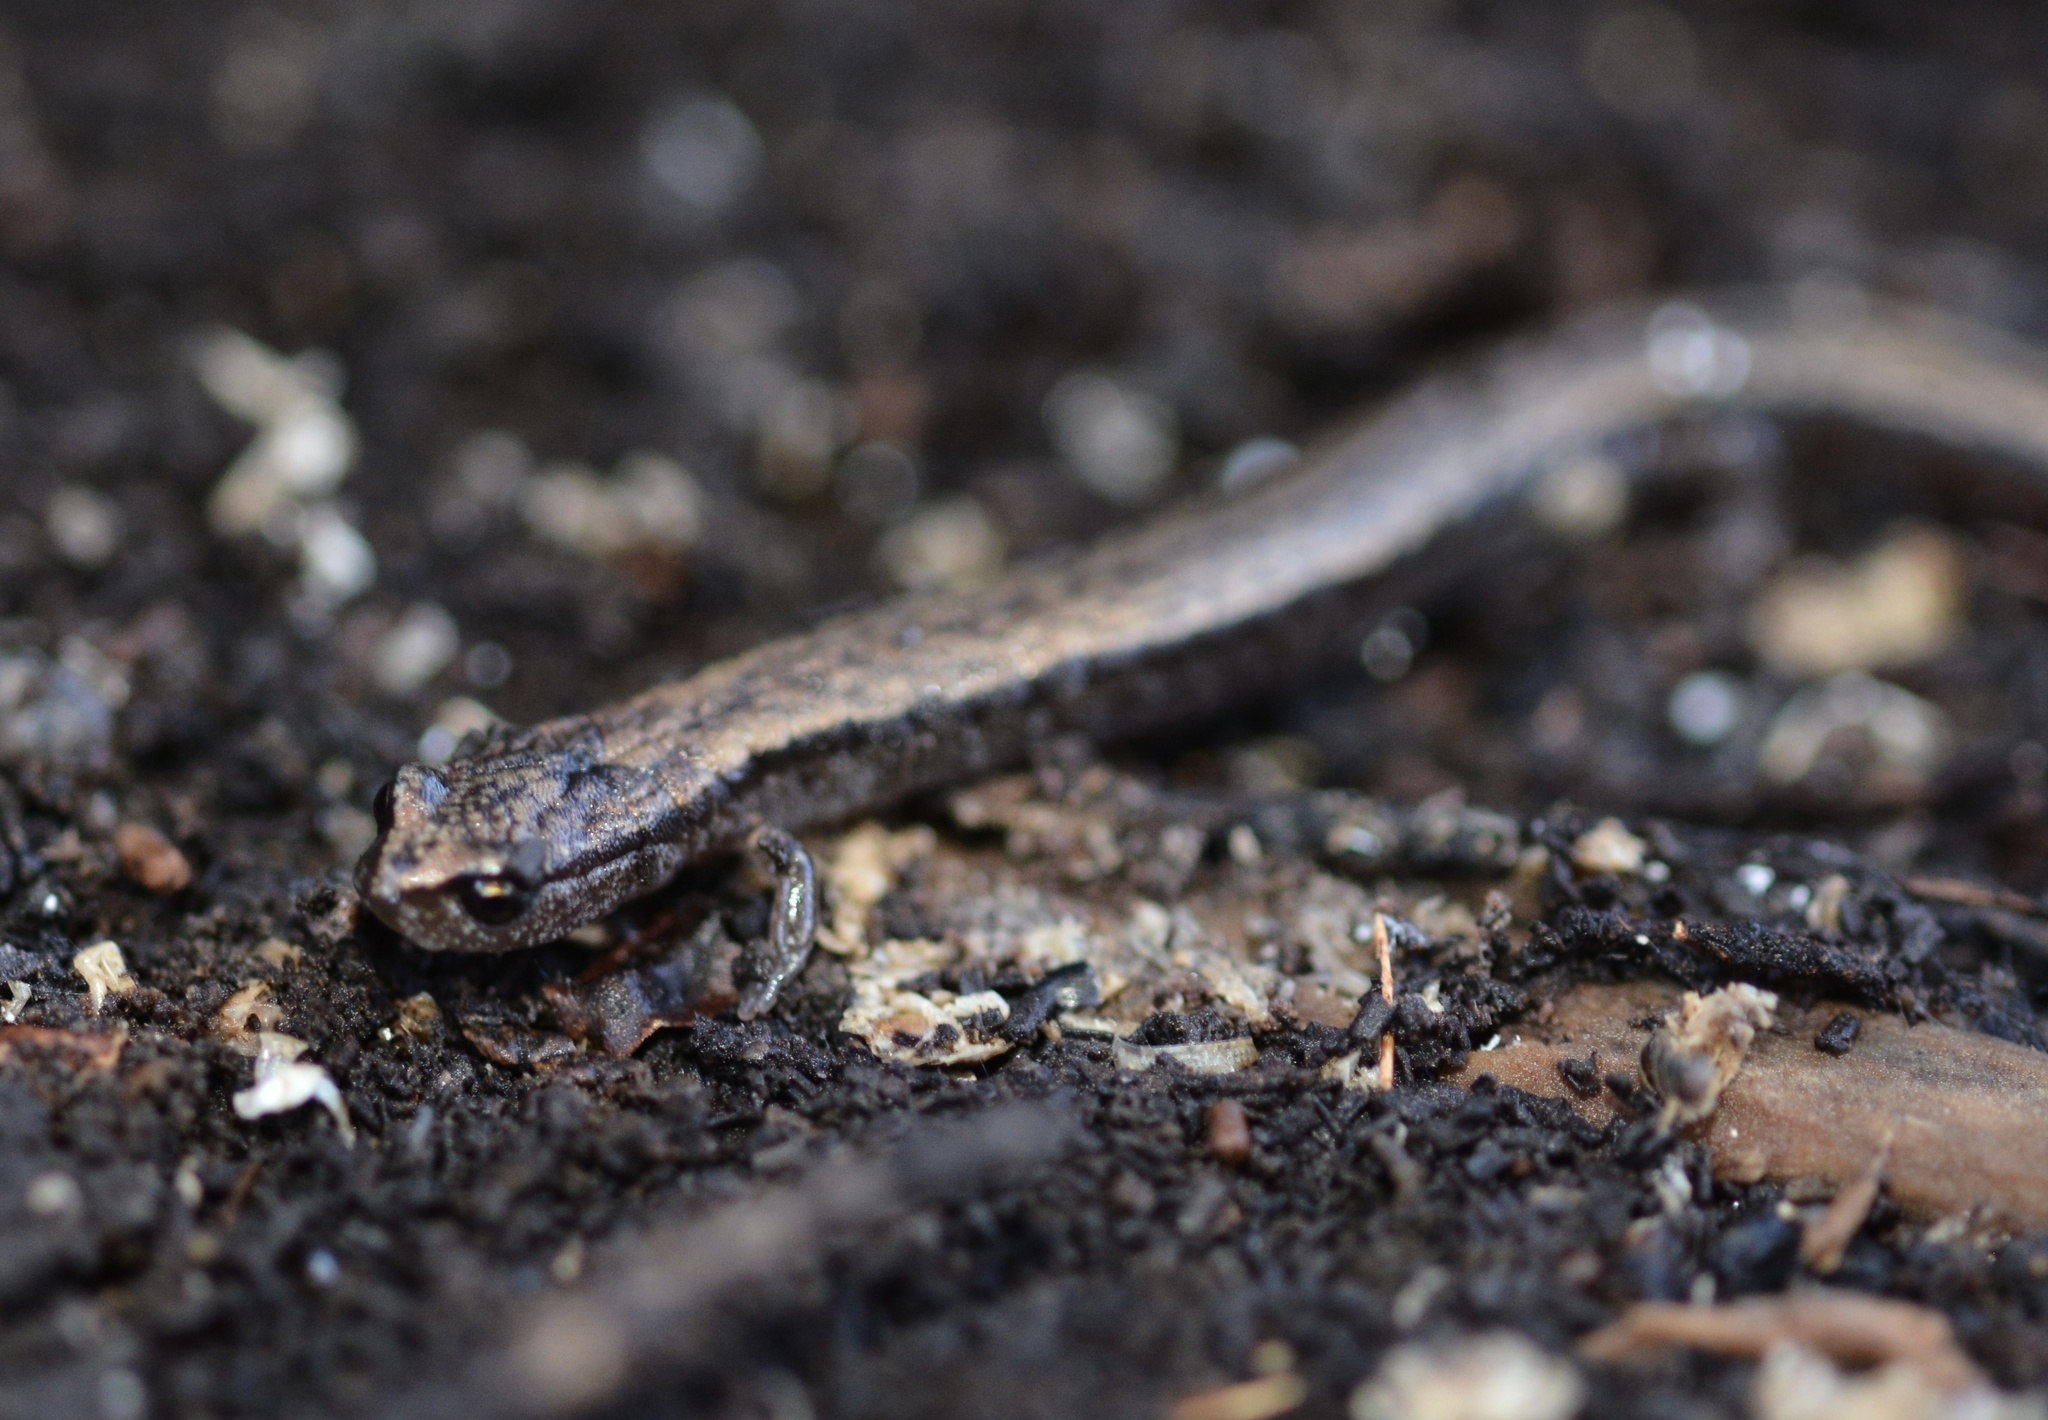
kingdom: Animalia
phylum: Chordata
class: Amphibia
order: Caudata
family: Plethodontidae
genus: Batrachoseps
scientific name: Batrachoseps attenuatus
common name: California slender salamander
